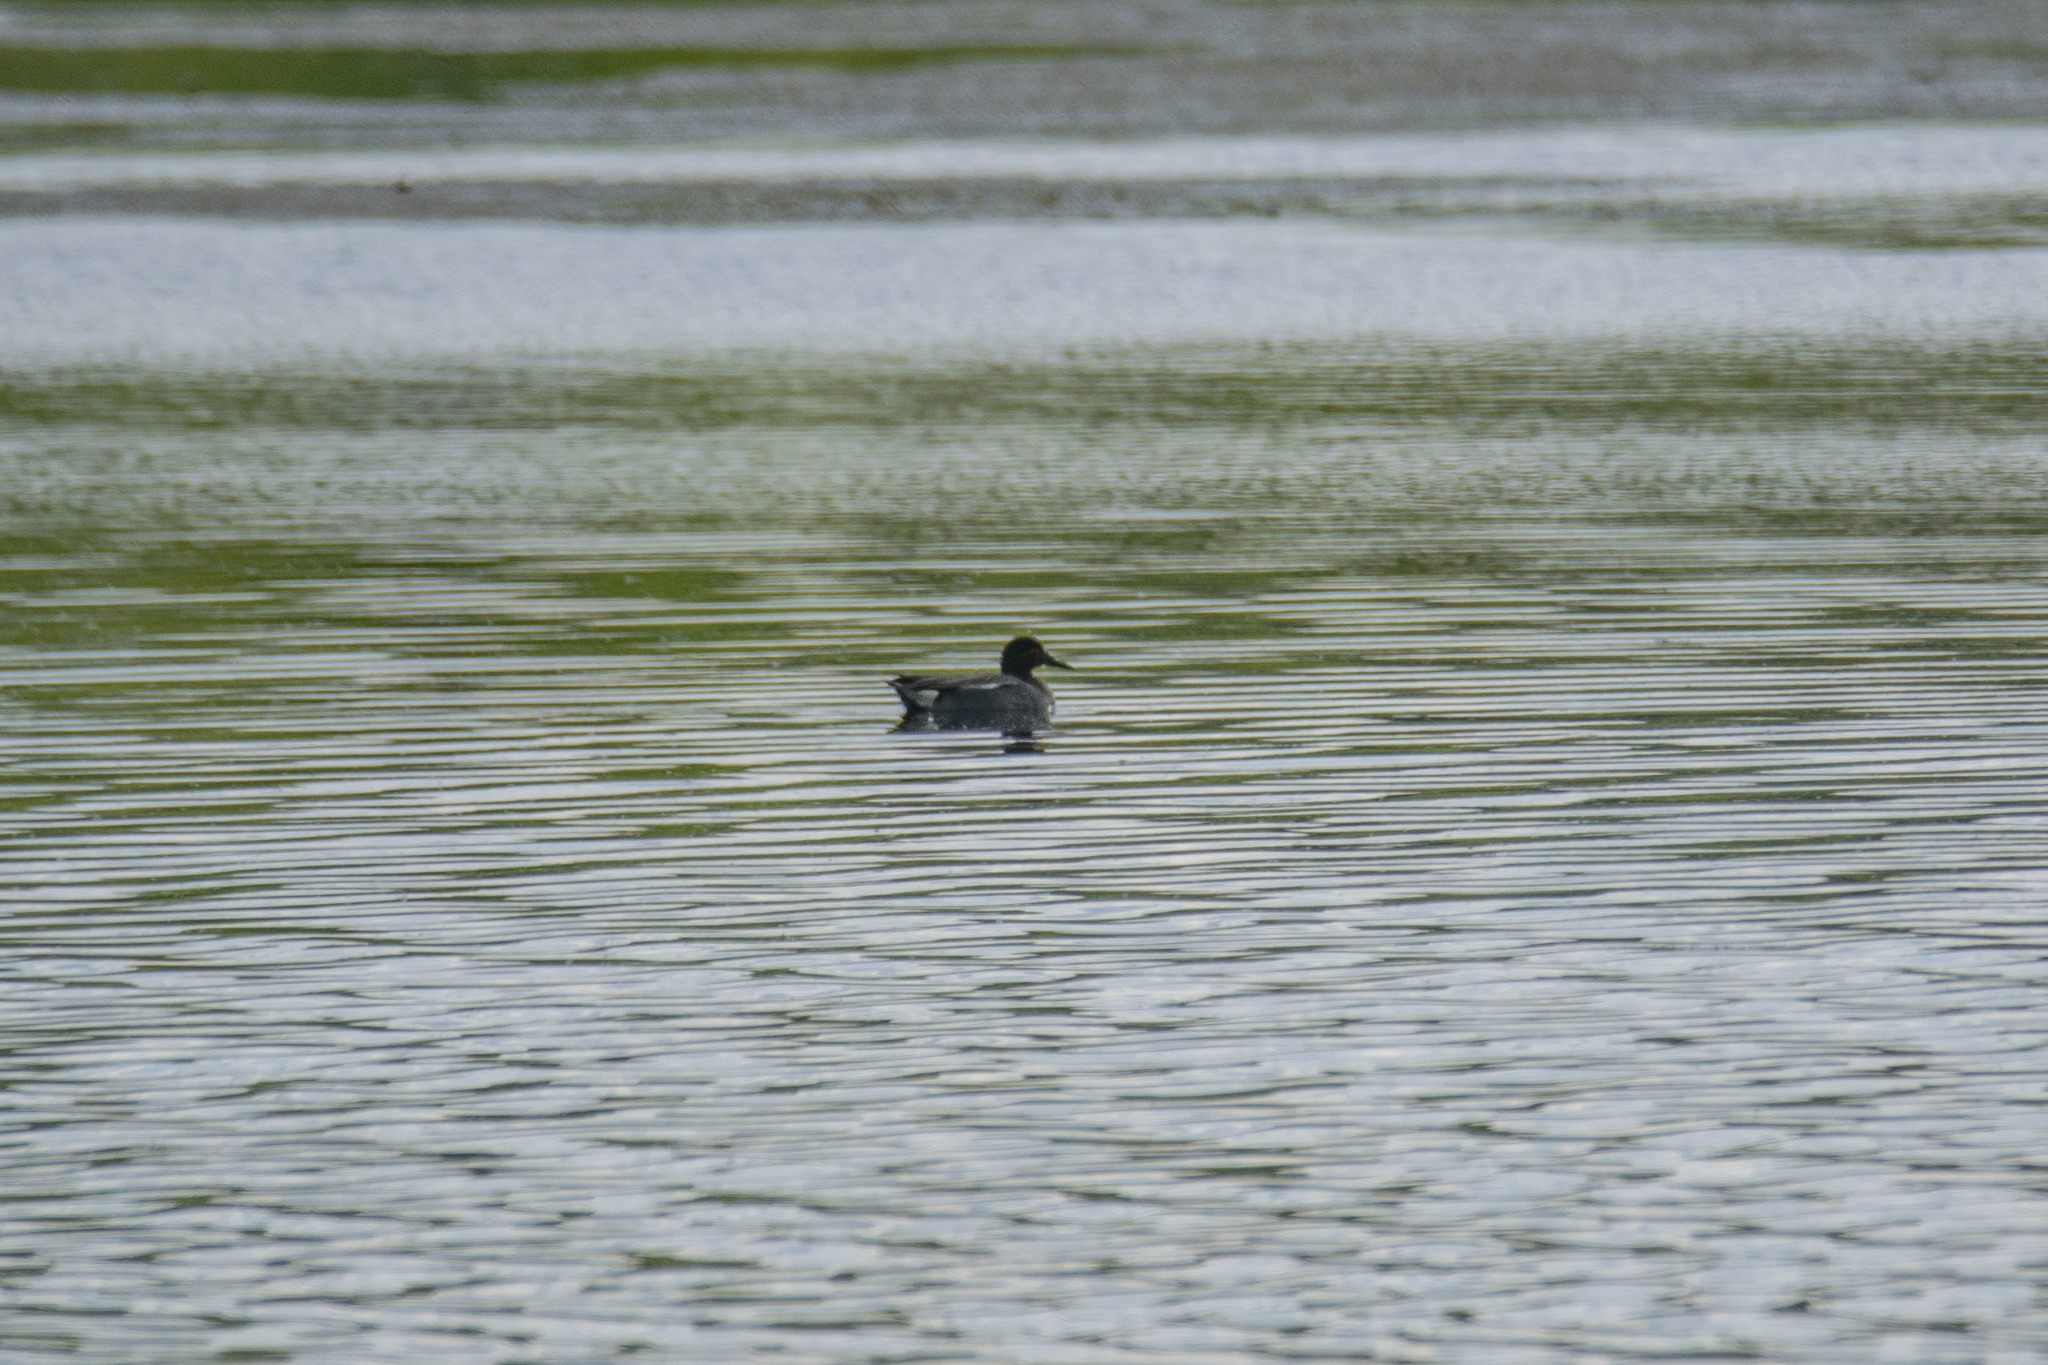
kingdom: Animalia
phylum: Chordata
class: Aves
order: Anseriformes
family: Anatidae
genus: Anas
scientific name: Anas crecca
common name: Eurasian teal
